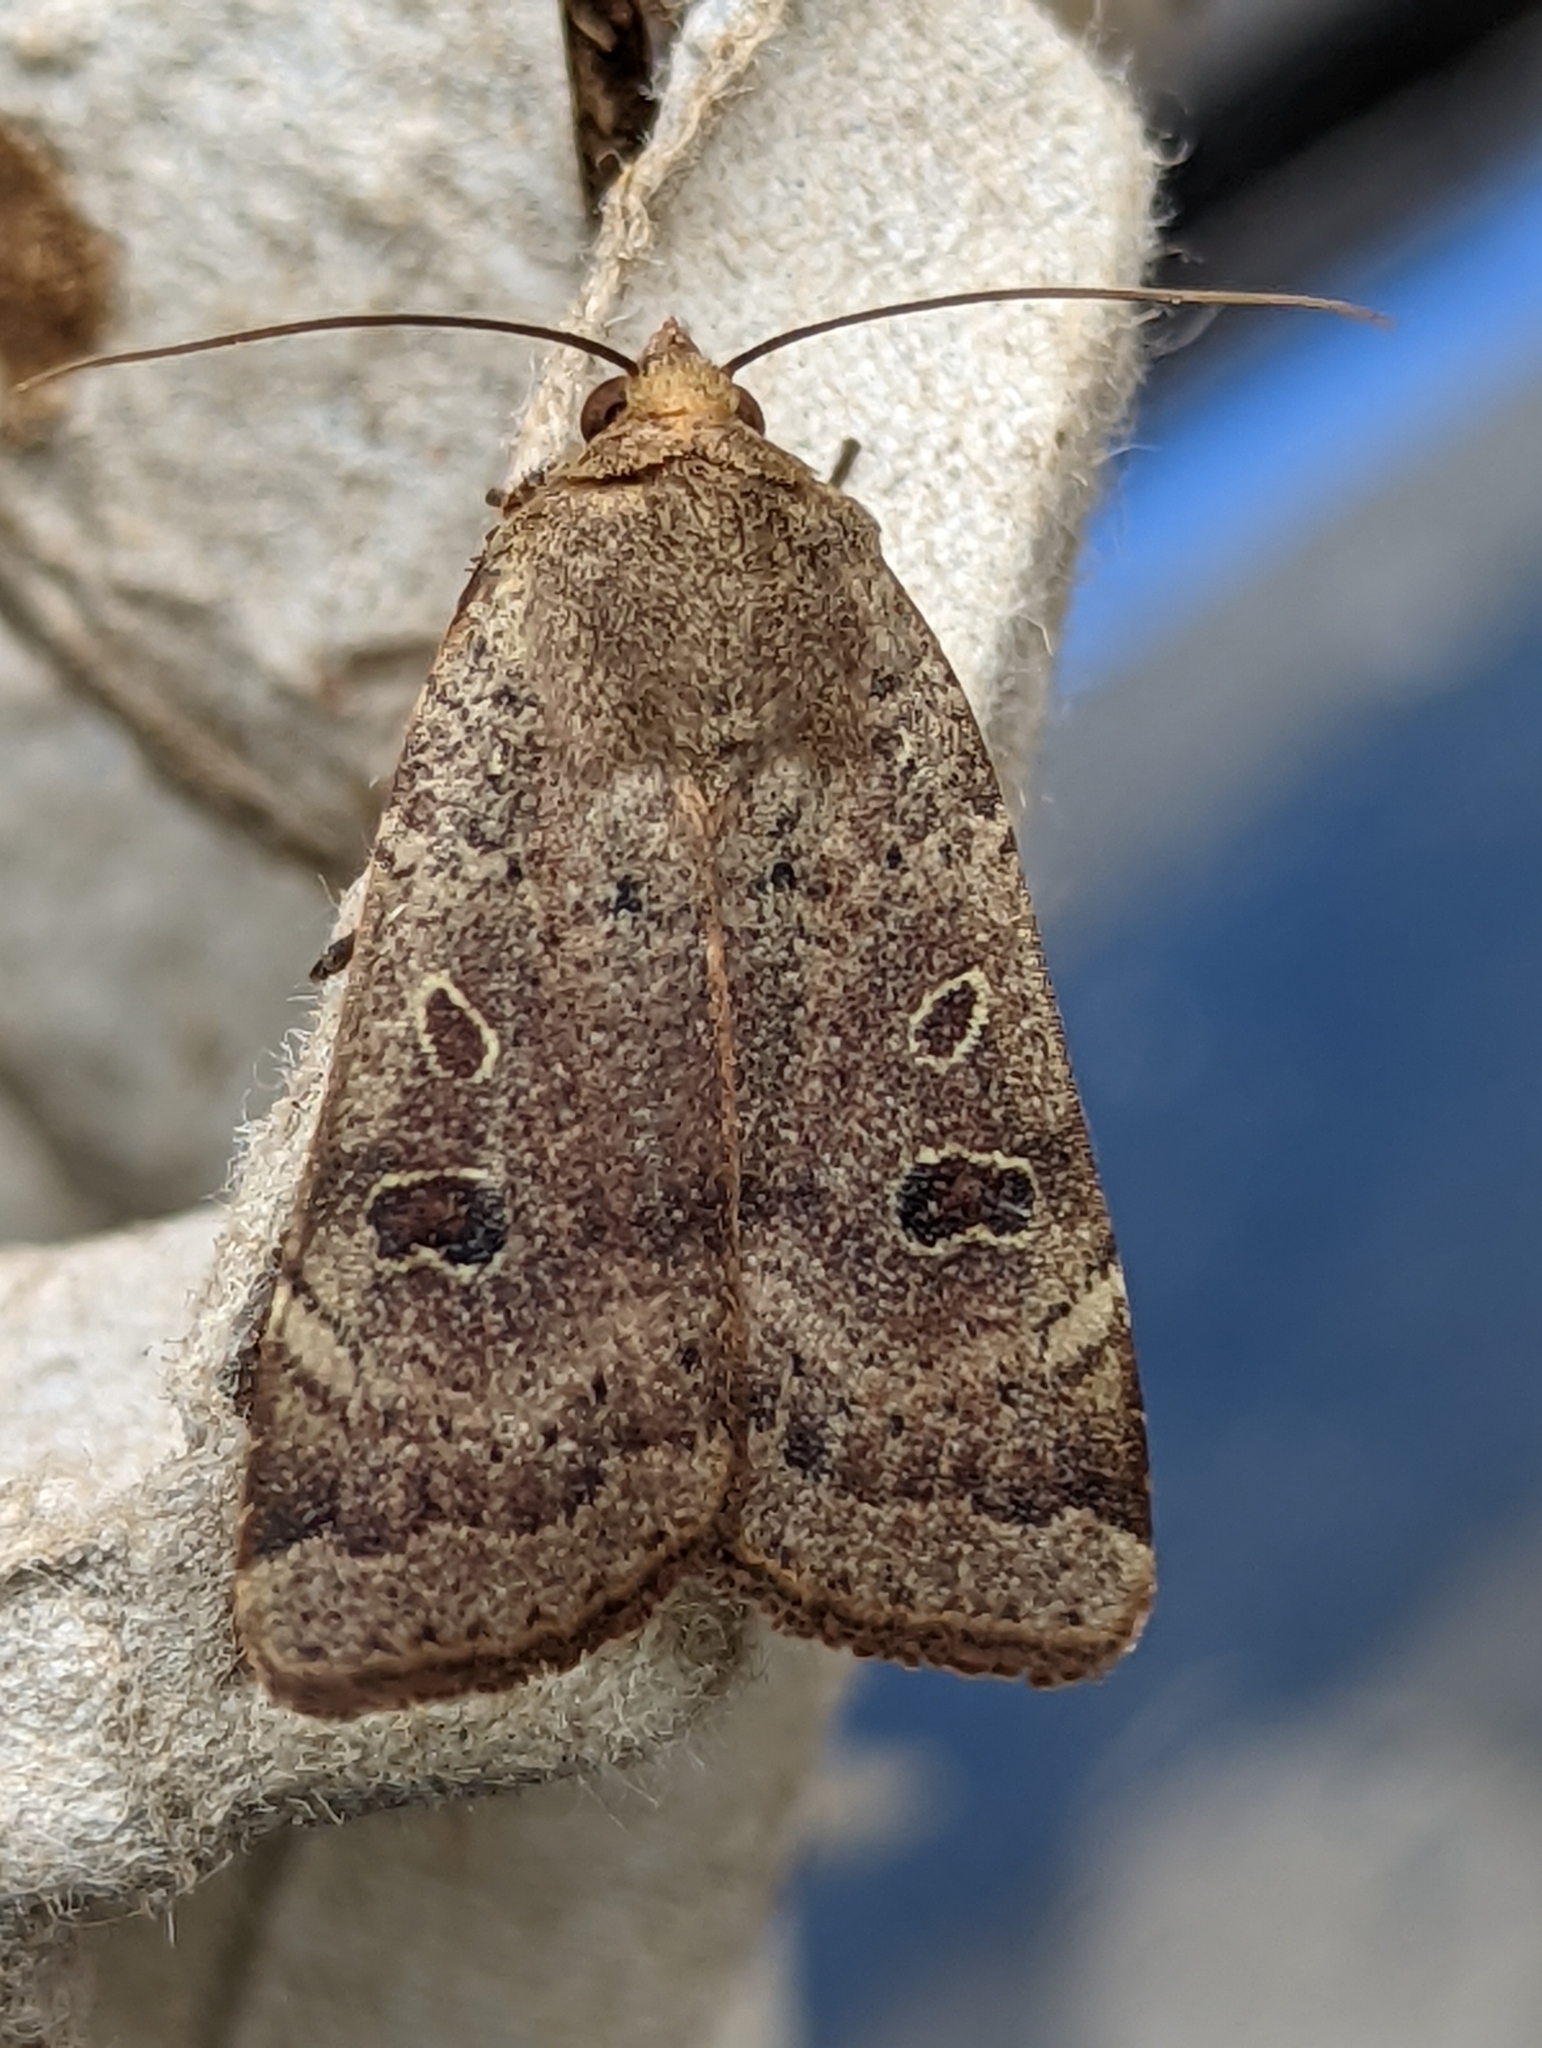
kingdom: Animalia
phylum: Arthropoda
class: Insecta
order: Lepidoptera
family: Noctuidae
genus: Noctua
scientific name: Noctua comes
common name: Lesser yellow underwing
